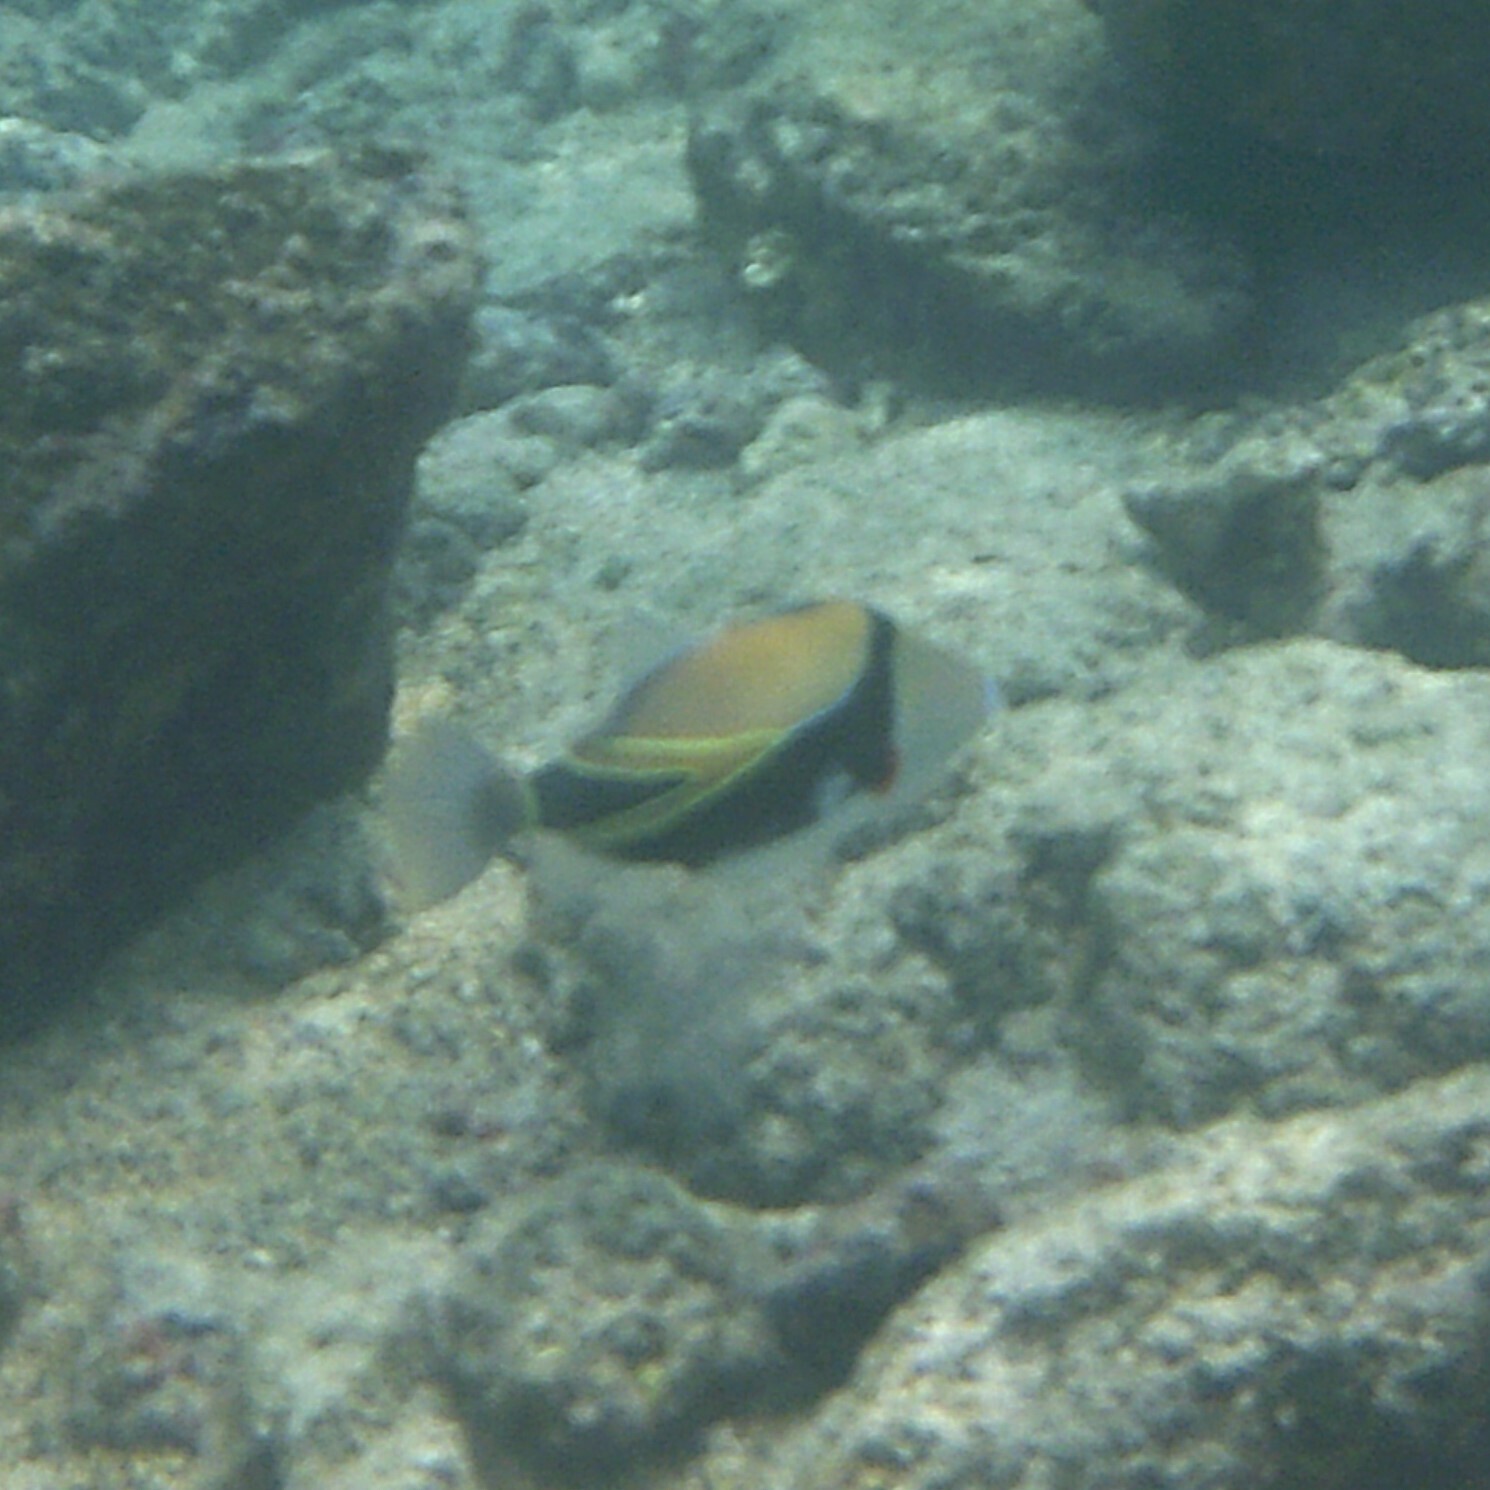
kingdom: Animalia
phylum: Chordata
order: Tetraodontiformes
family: Balistidae
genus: Rhinecanthus
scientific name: Rhinecanthus rectangulus
